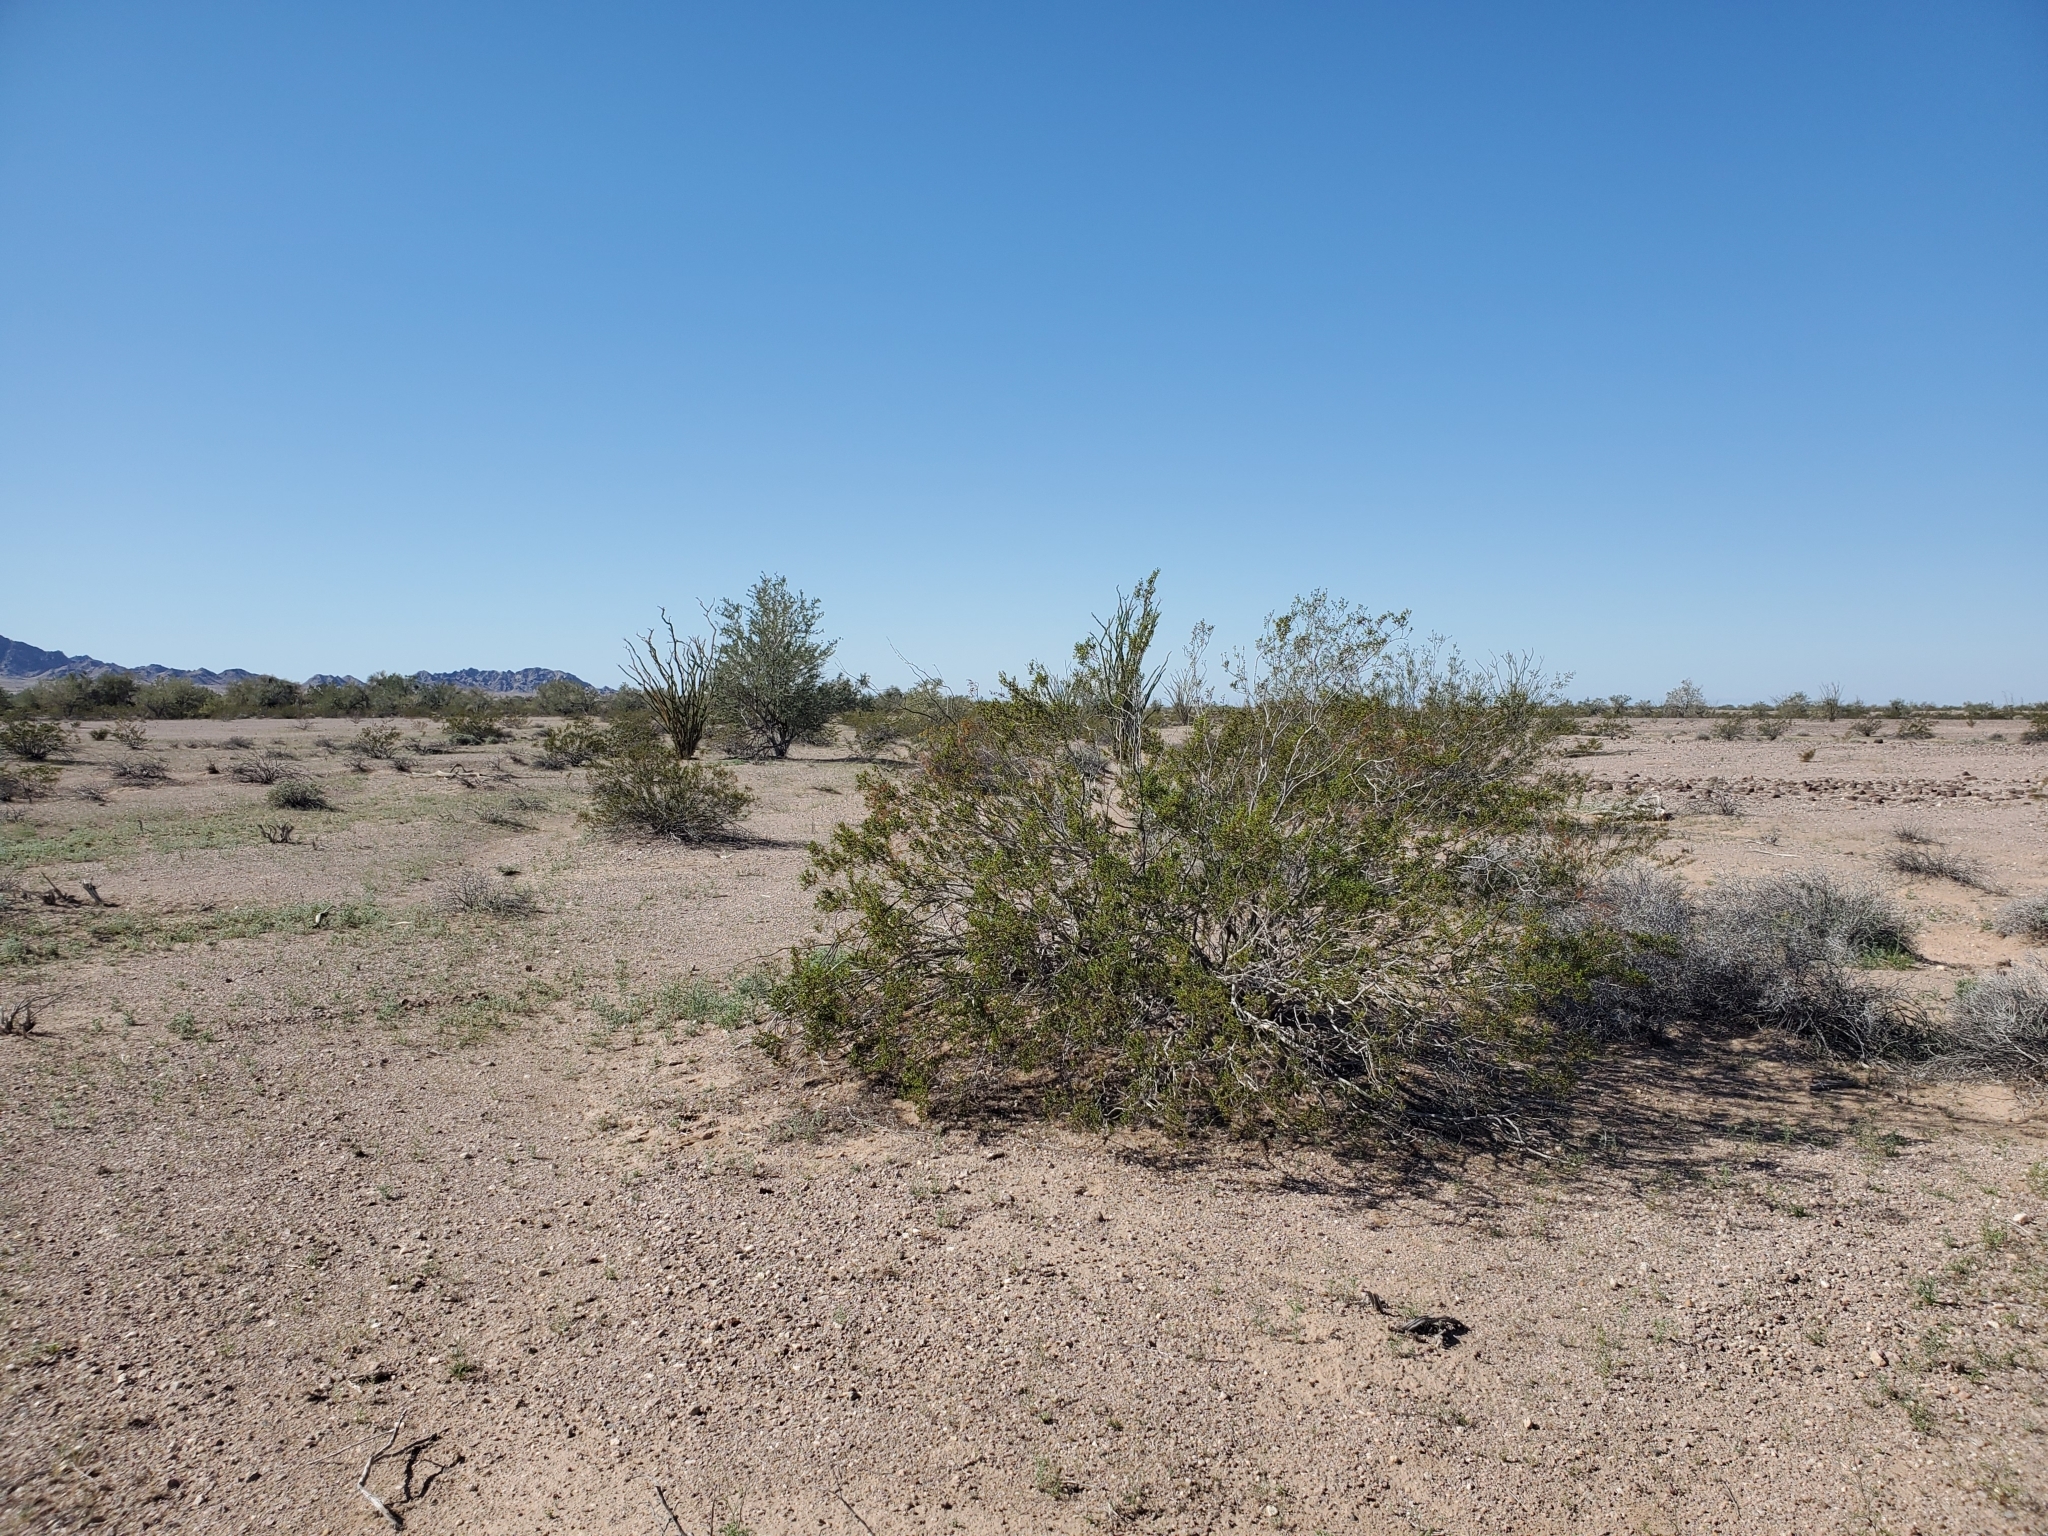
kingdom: Plantae
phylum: Tracheophyta
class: Magnoliopsida
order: Zygophyllales
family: Zygophyllaceae
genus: Larrea
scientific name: Larrea tridentata
